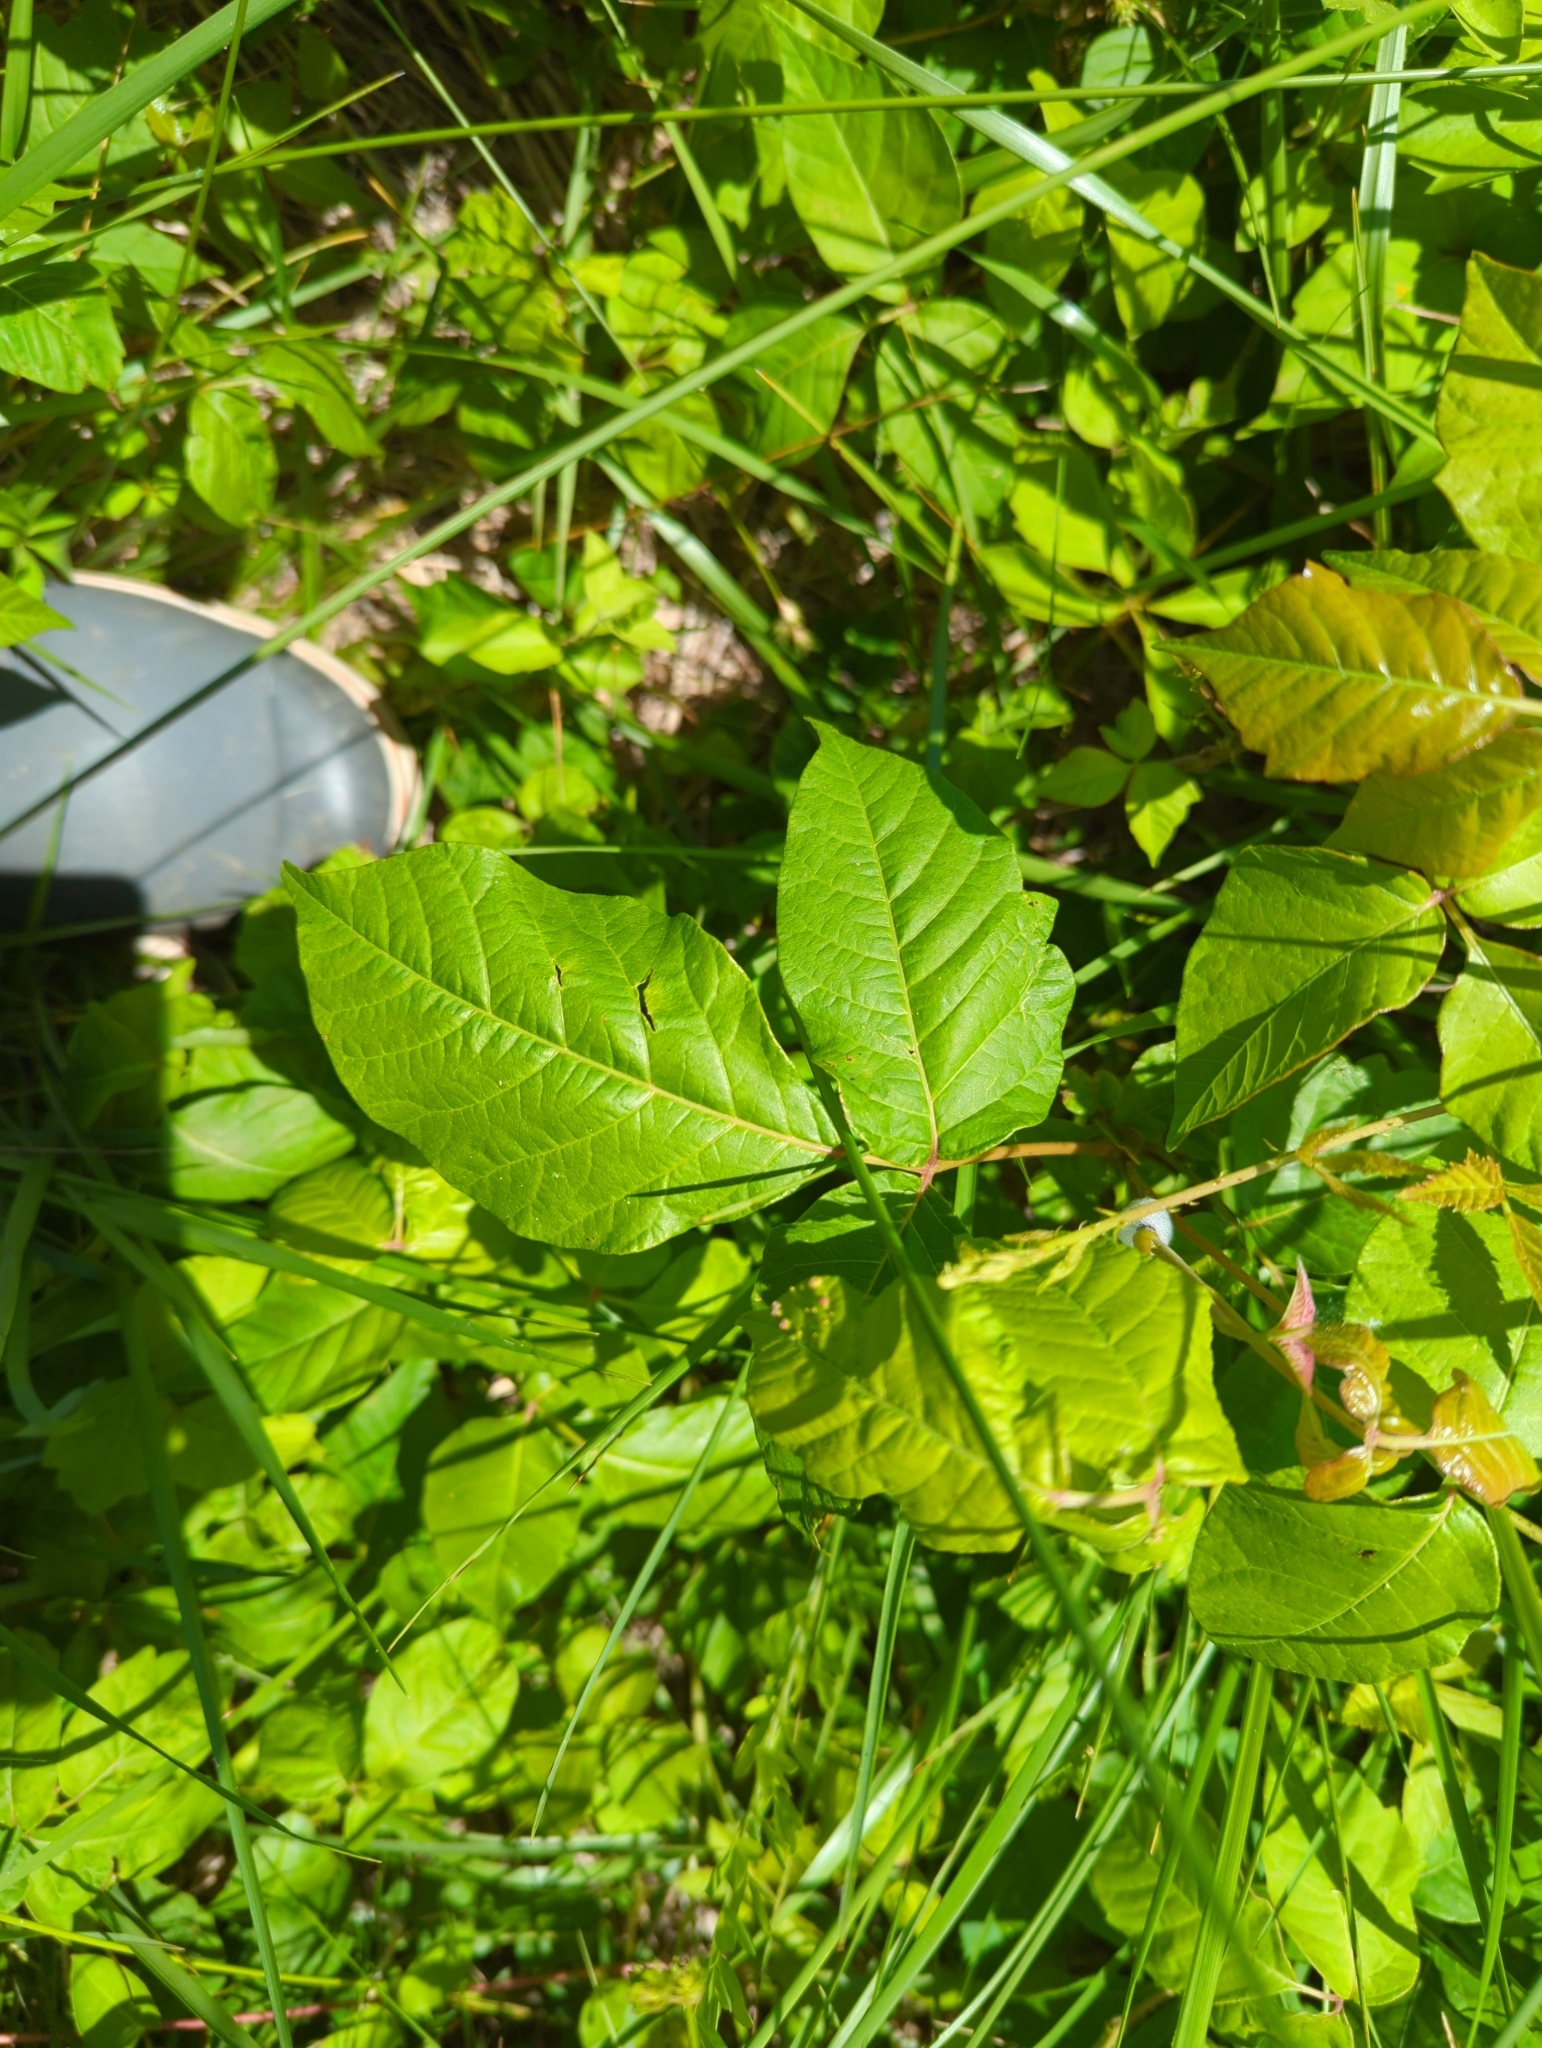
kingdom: Plantae
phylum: Tracheophyta
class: Magnoliopsida
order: Sapindales
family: Anacardiaceae
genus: Toxicodendron
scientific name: Toxicodendron radicans
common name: Poison ivy
